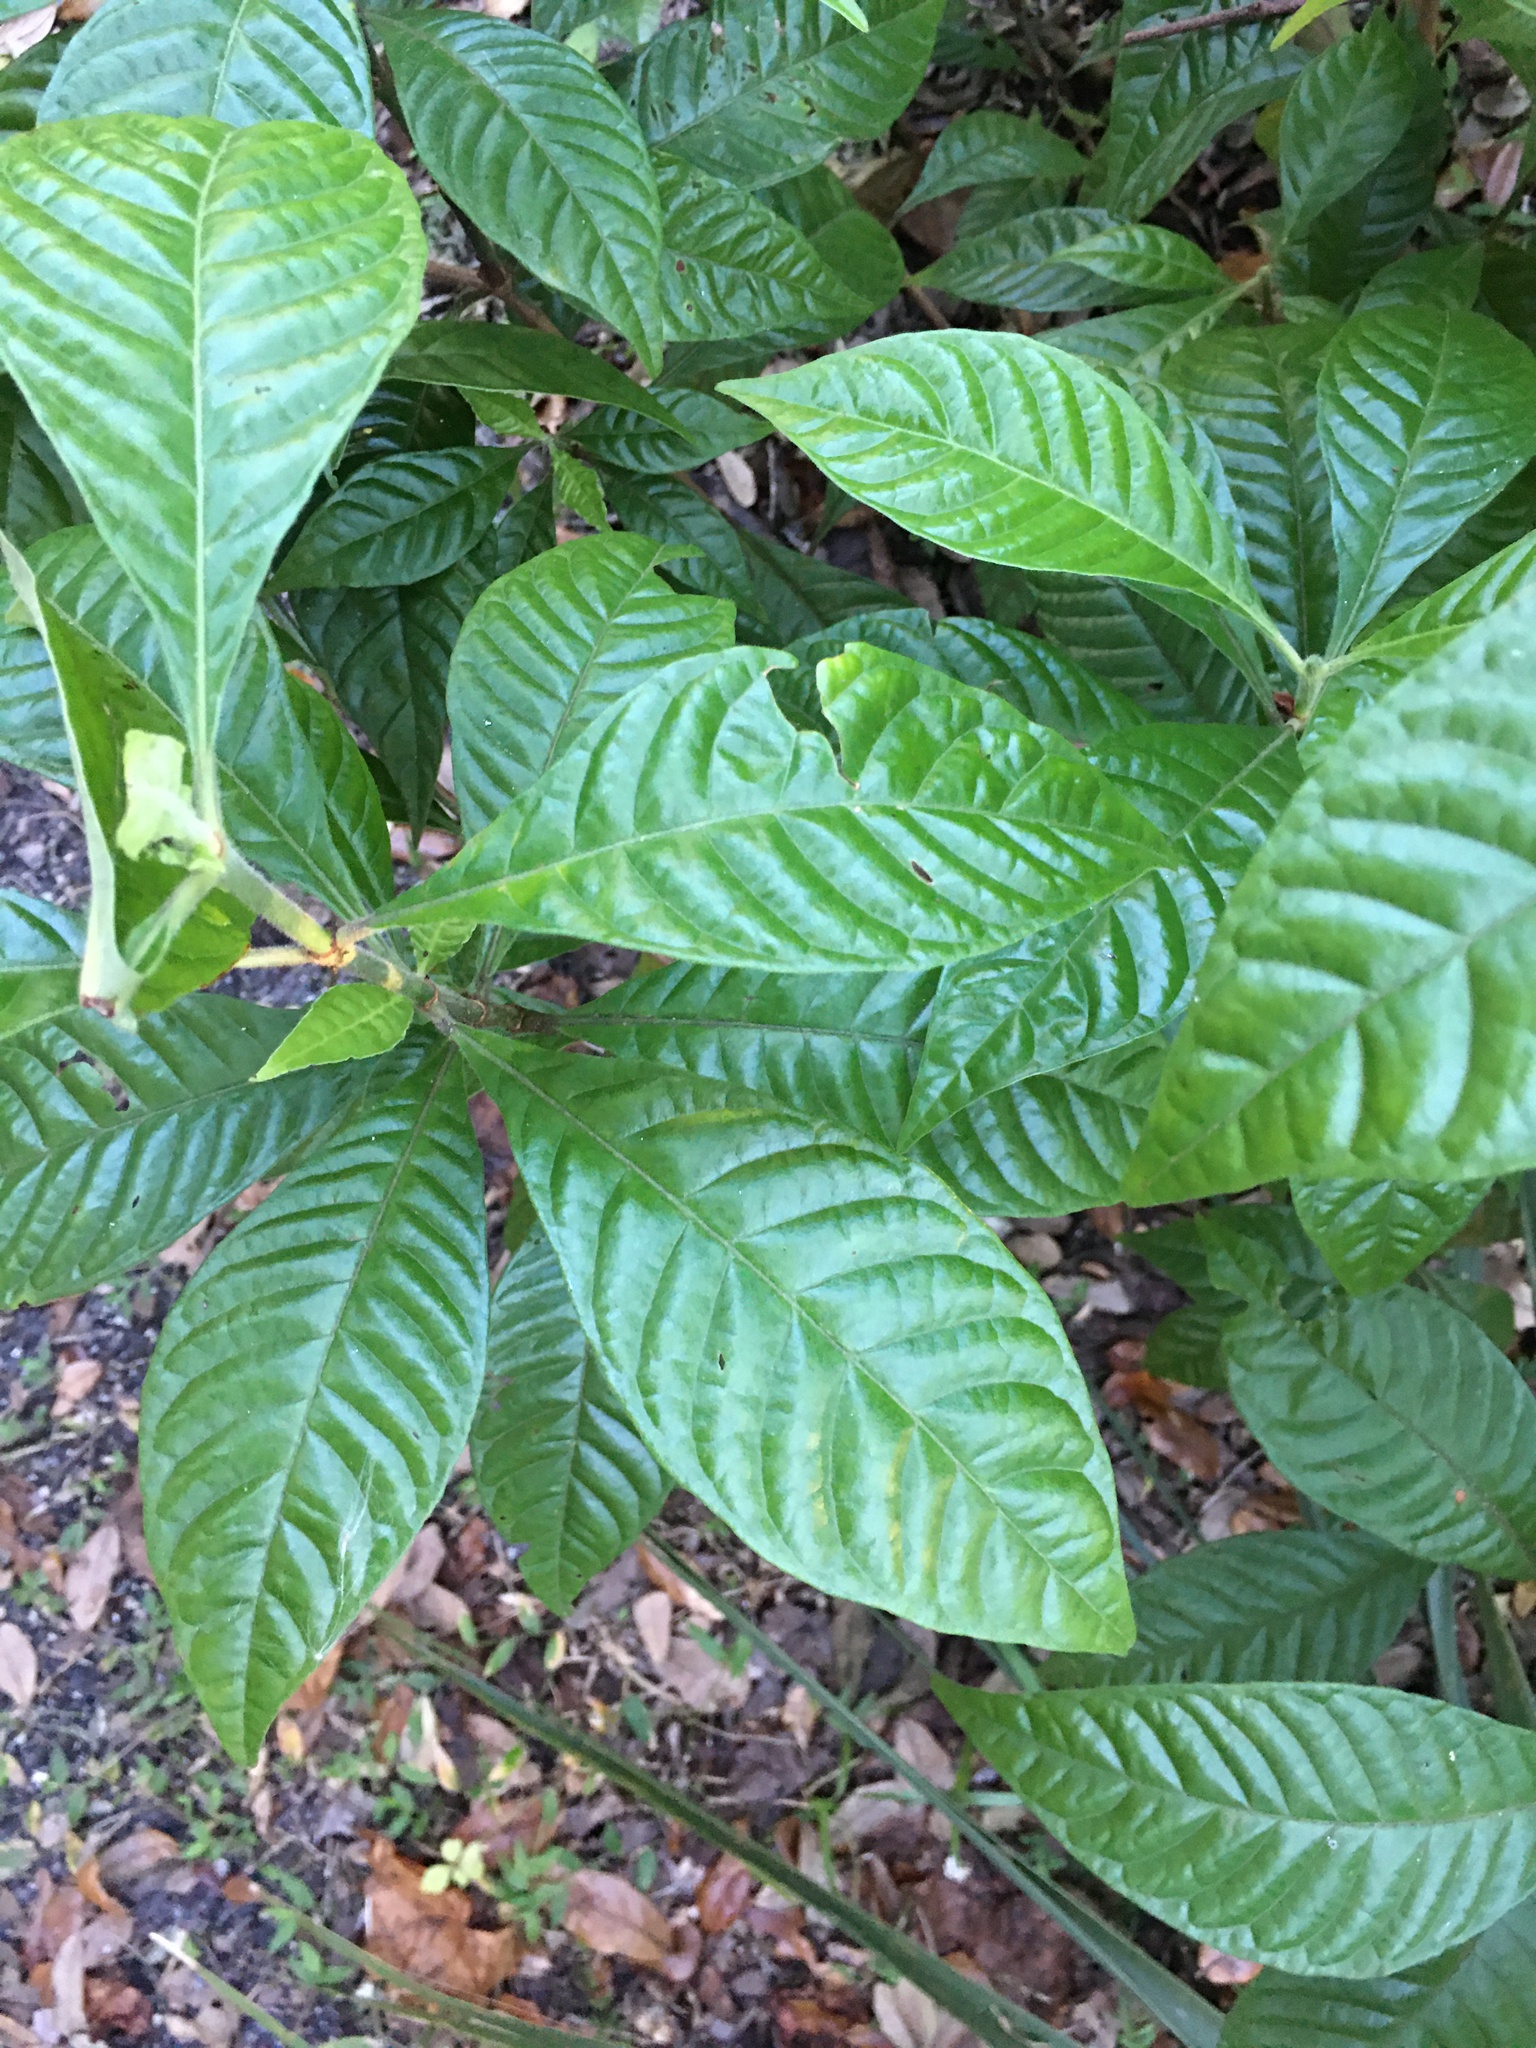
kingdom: Plantae
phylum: Tracheophyta
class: Magnoliopsida
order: Gentianales
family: Rubiaceae
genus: Psychotria
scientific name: Psychotria nervosa
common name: Bastard cankerberry
